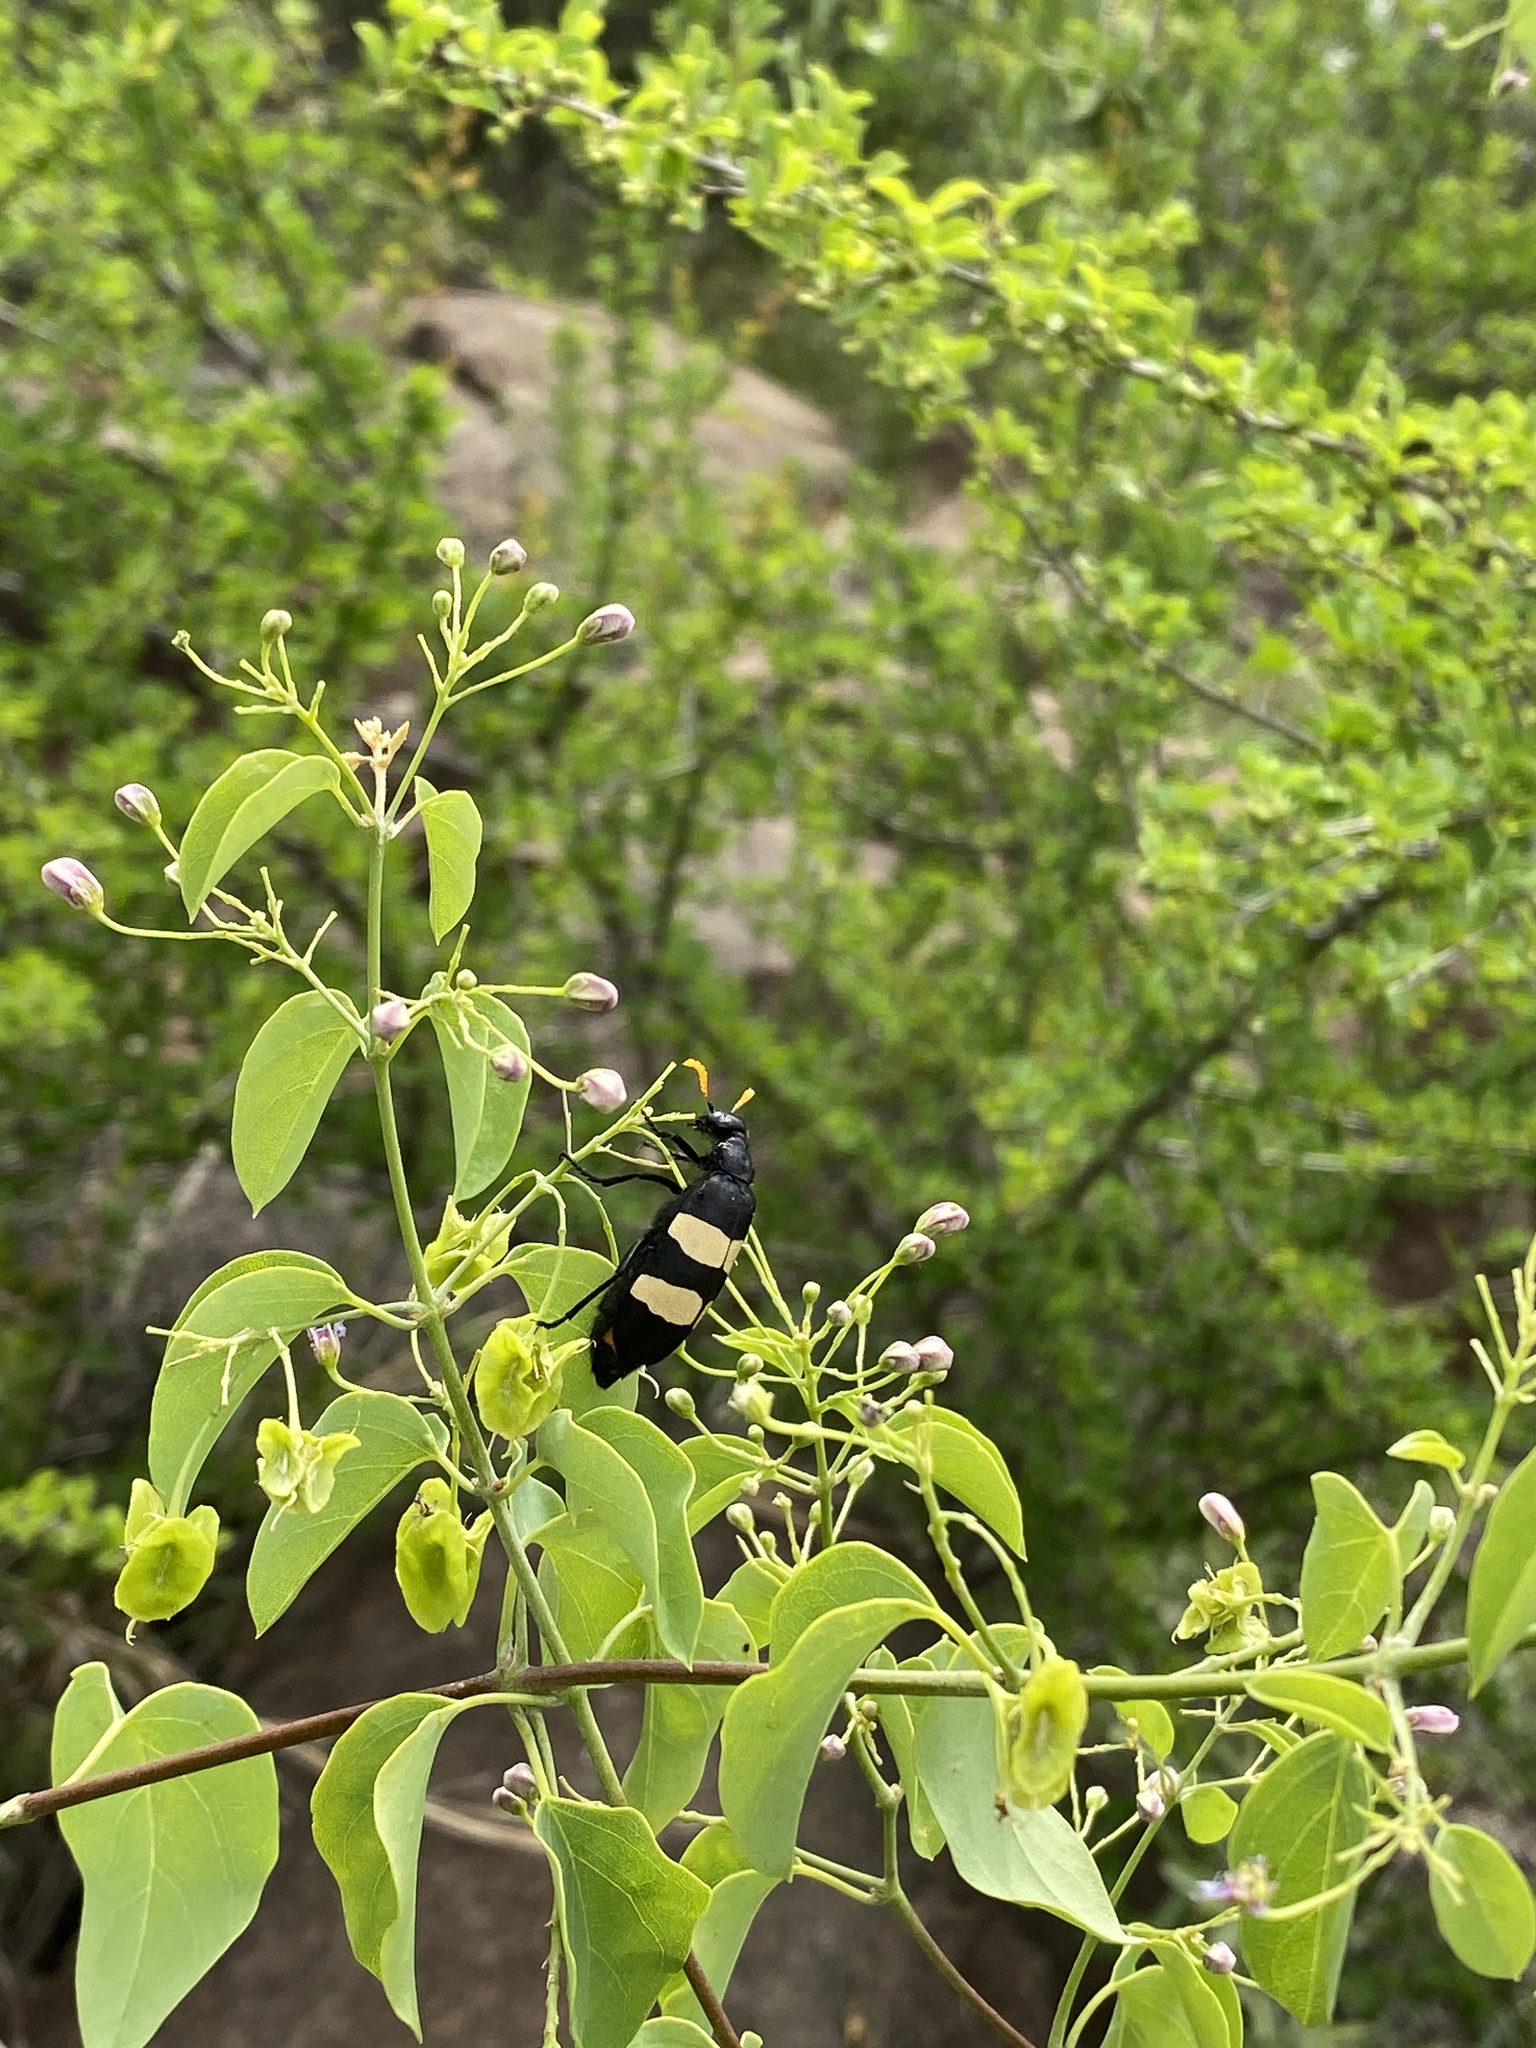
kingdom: Animalia
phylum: Arthropoda
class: Insecta
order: Coleoptera
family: Meloidae
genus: Hycleus
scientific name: Hycleus
